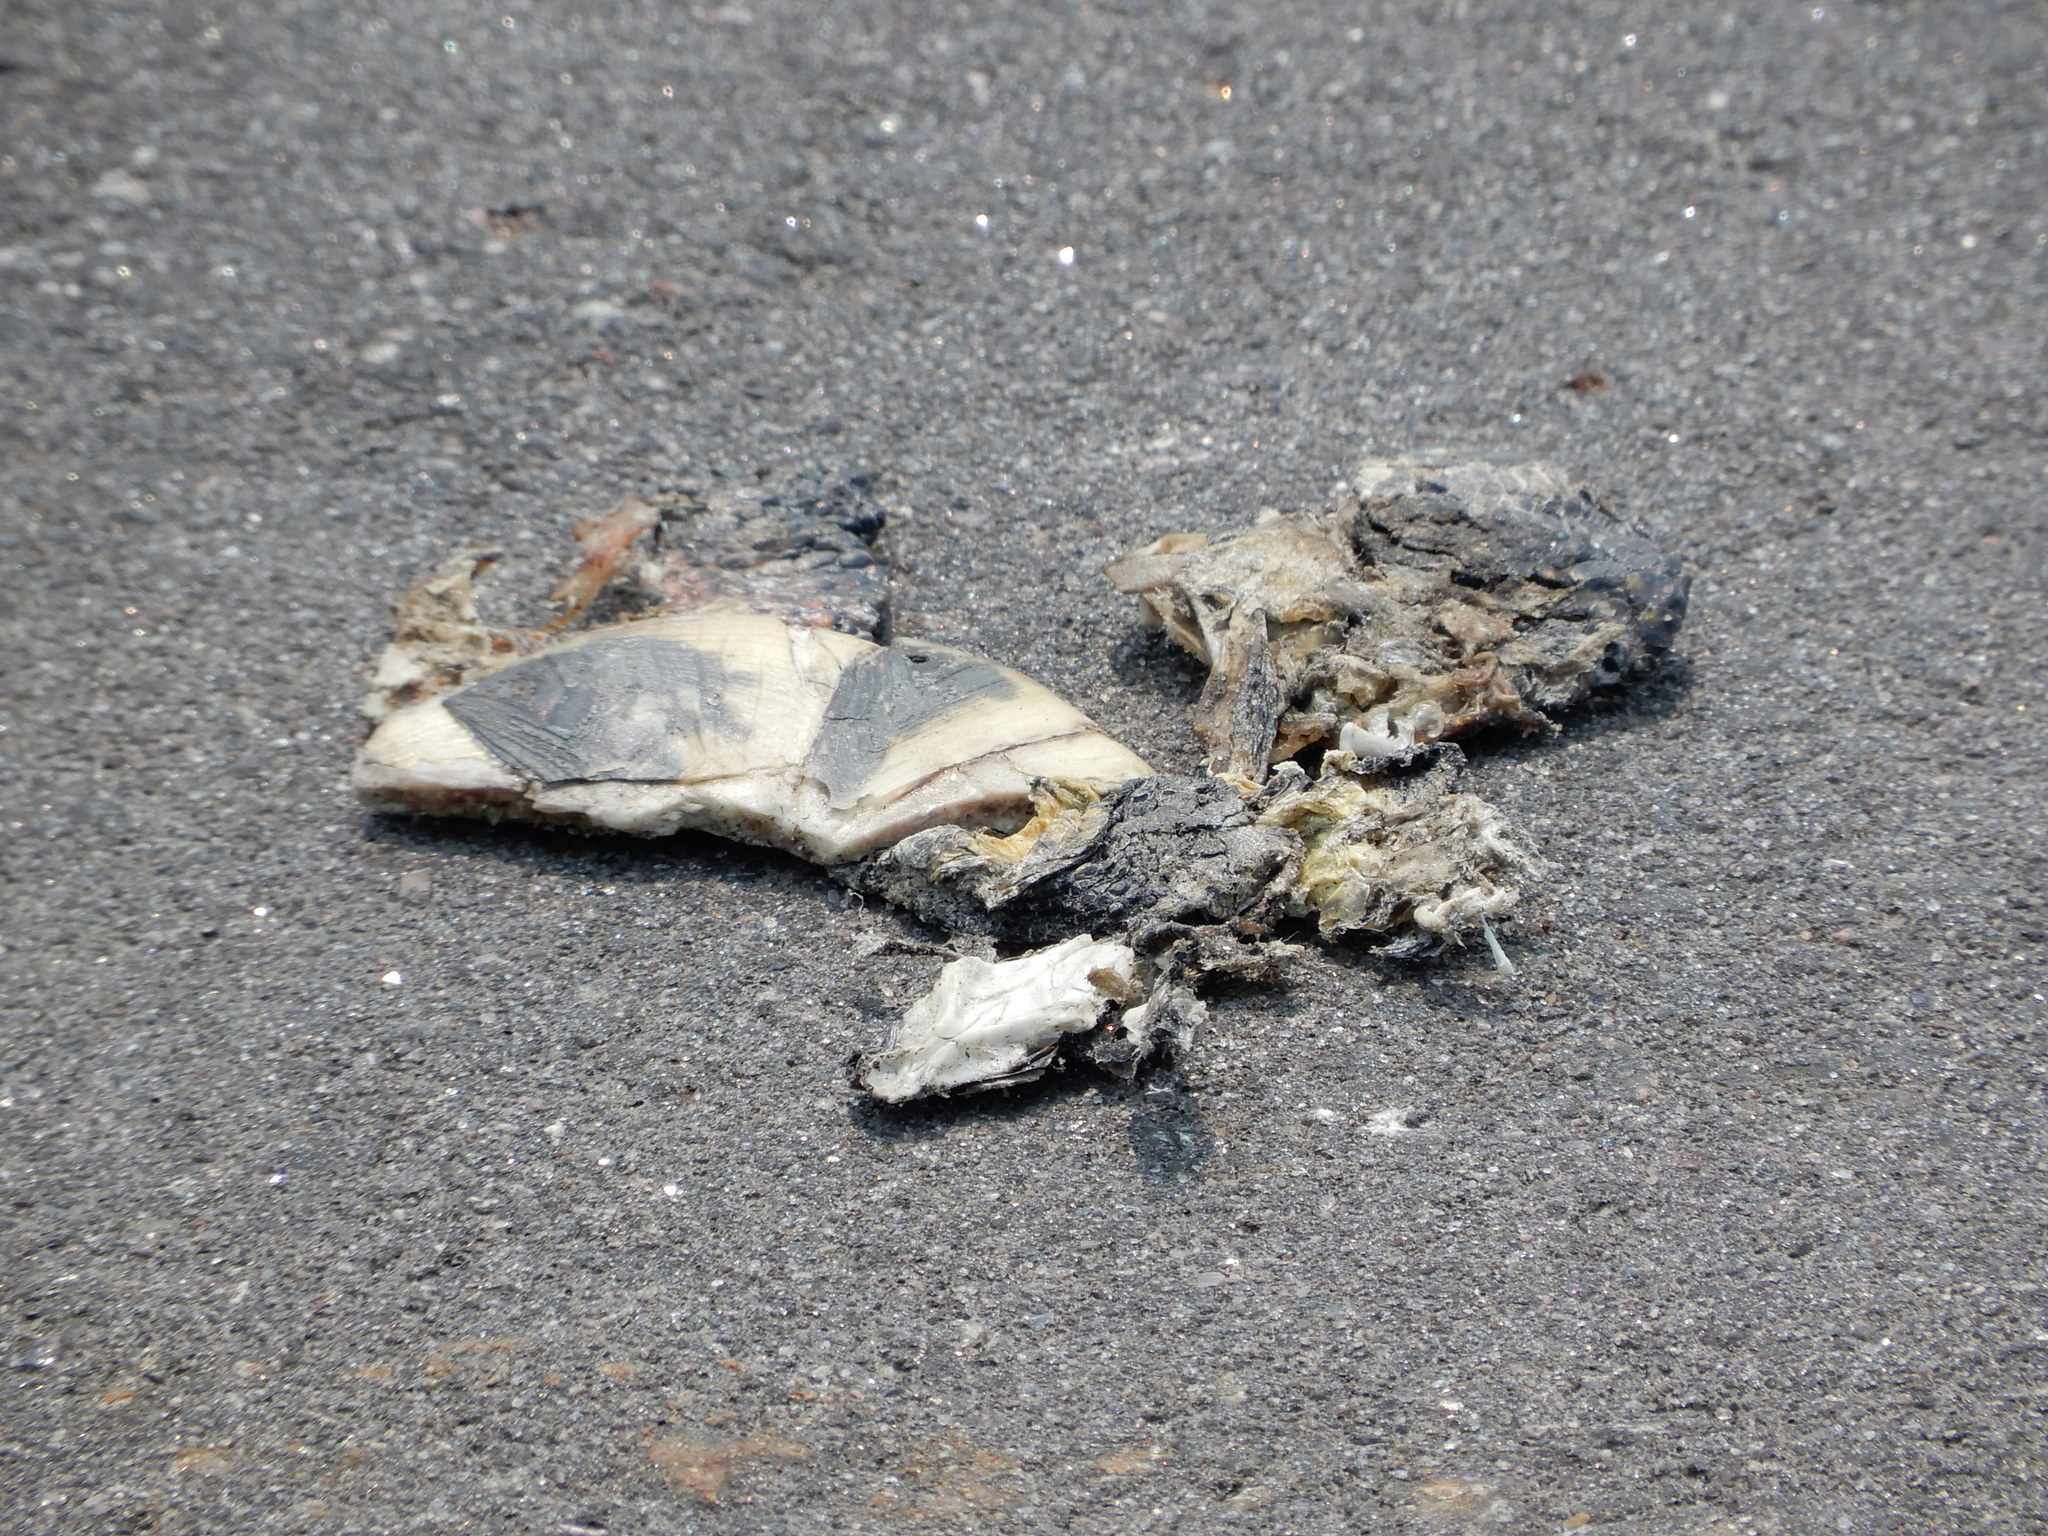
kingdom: Animalia
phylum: Chordata
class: Testudines
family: Emydidae
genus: Emys
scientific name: Emys blandingii
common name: Blanding's turtle
